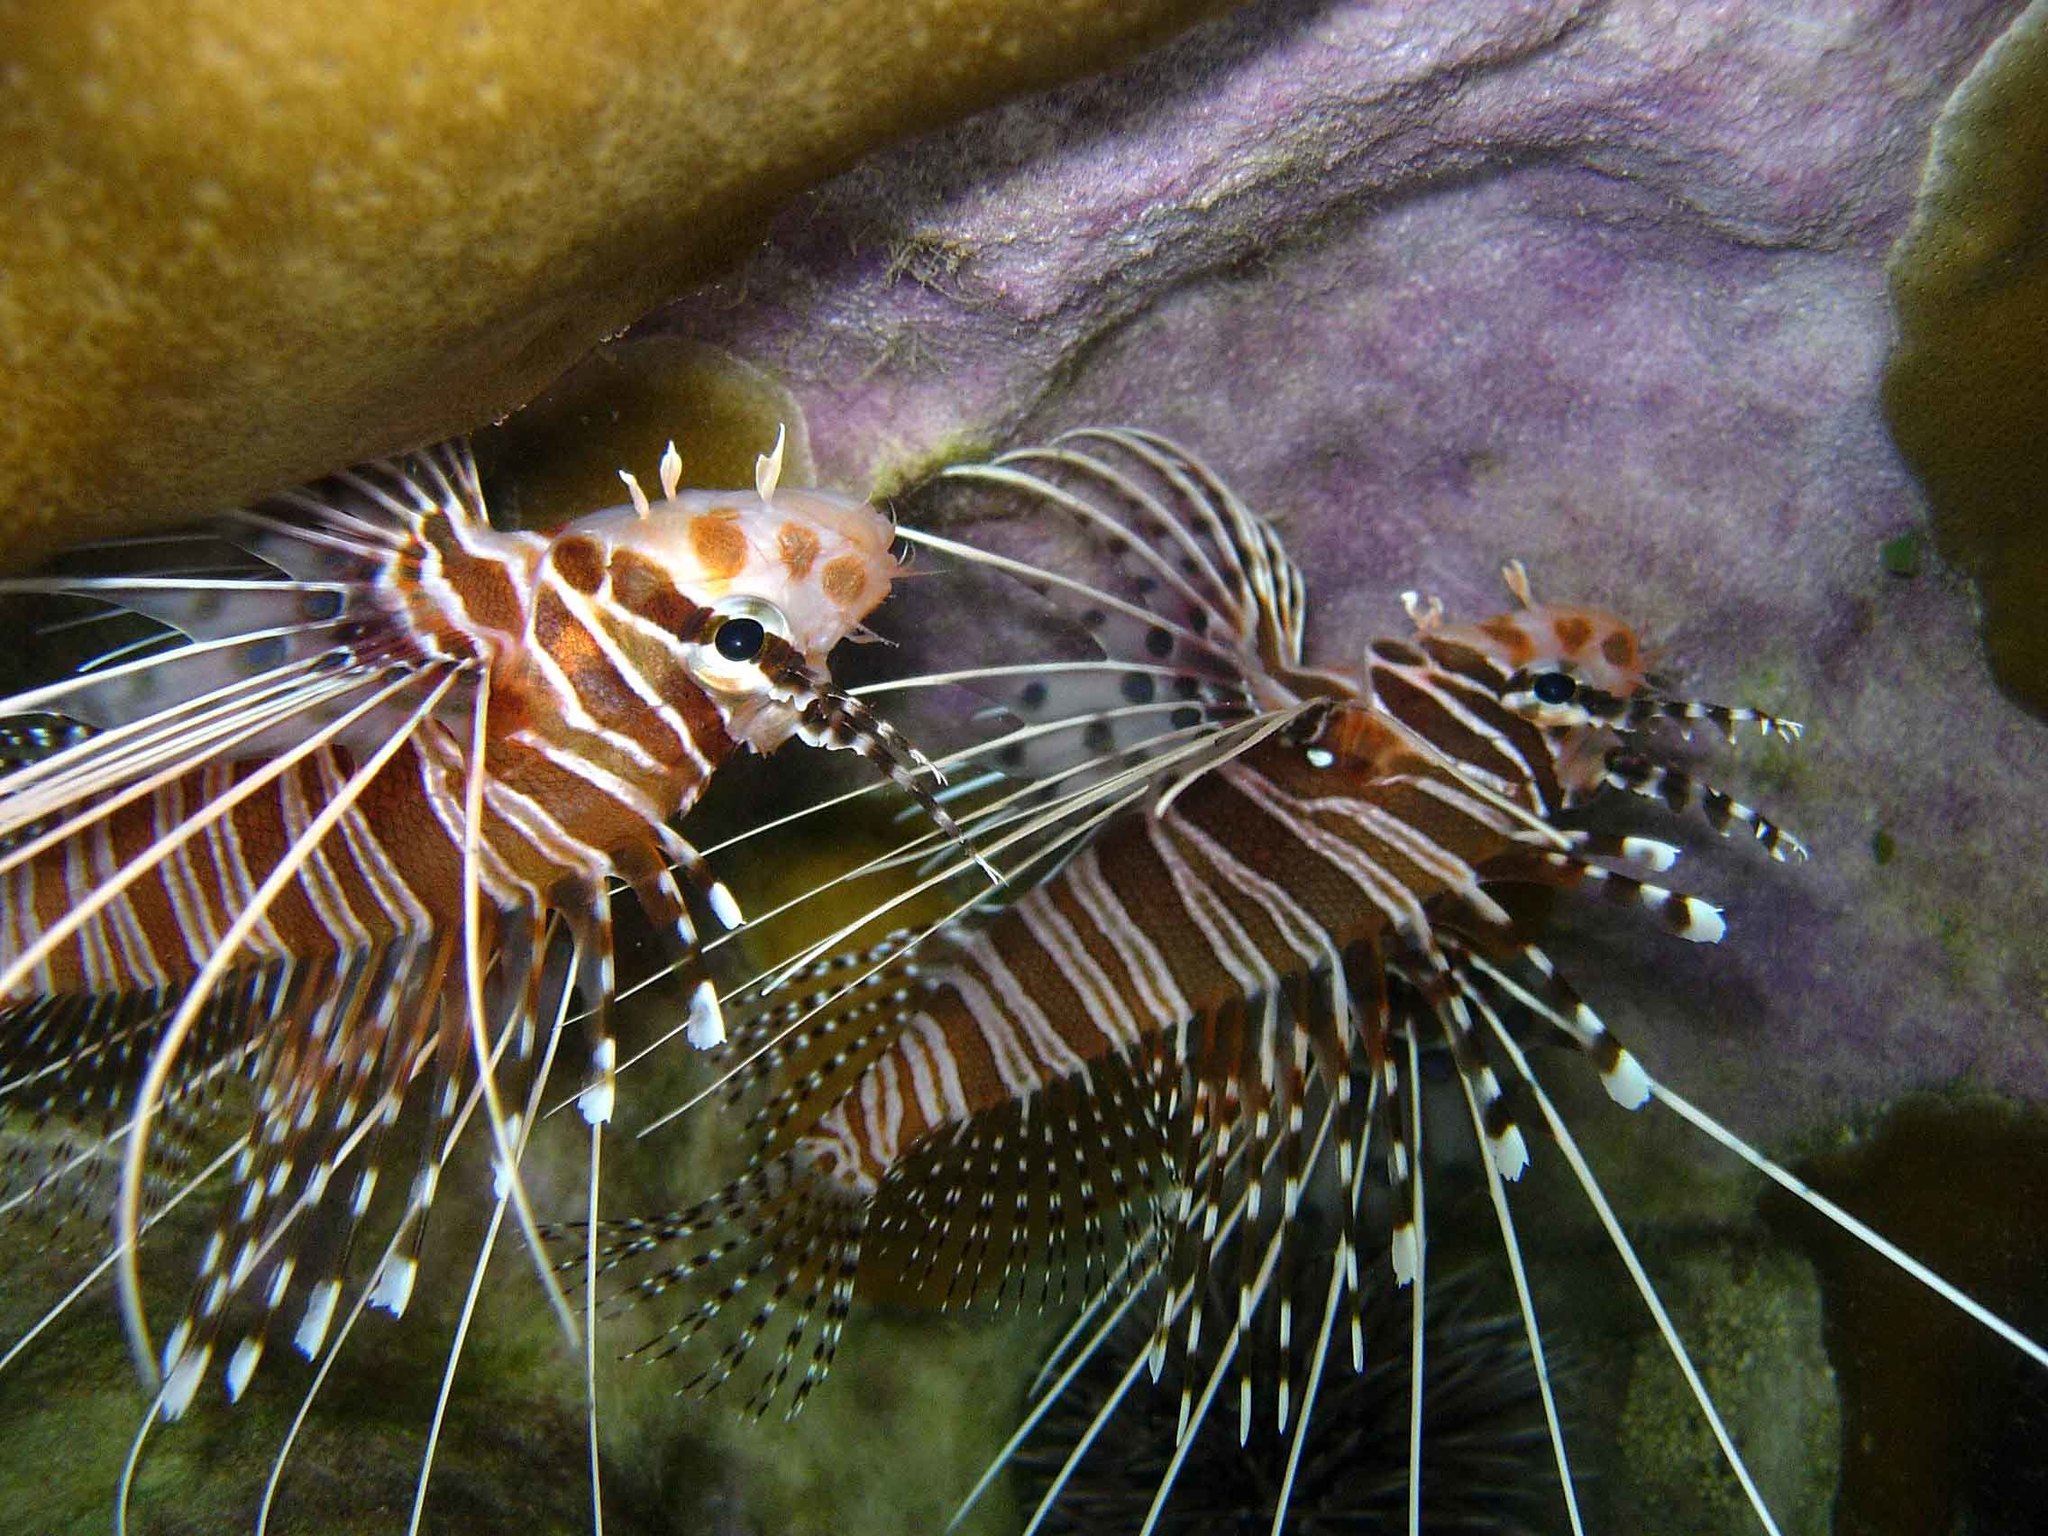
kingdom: Animalia
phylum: Chordata
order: Scorpaeniformes
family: Scorpaenidae
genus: Pterois
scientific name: Pterois antennata
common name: Spotfin lionfish
